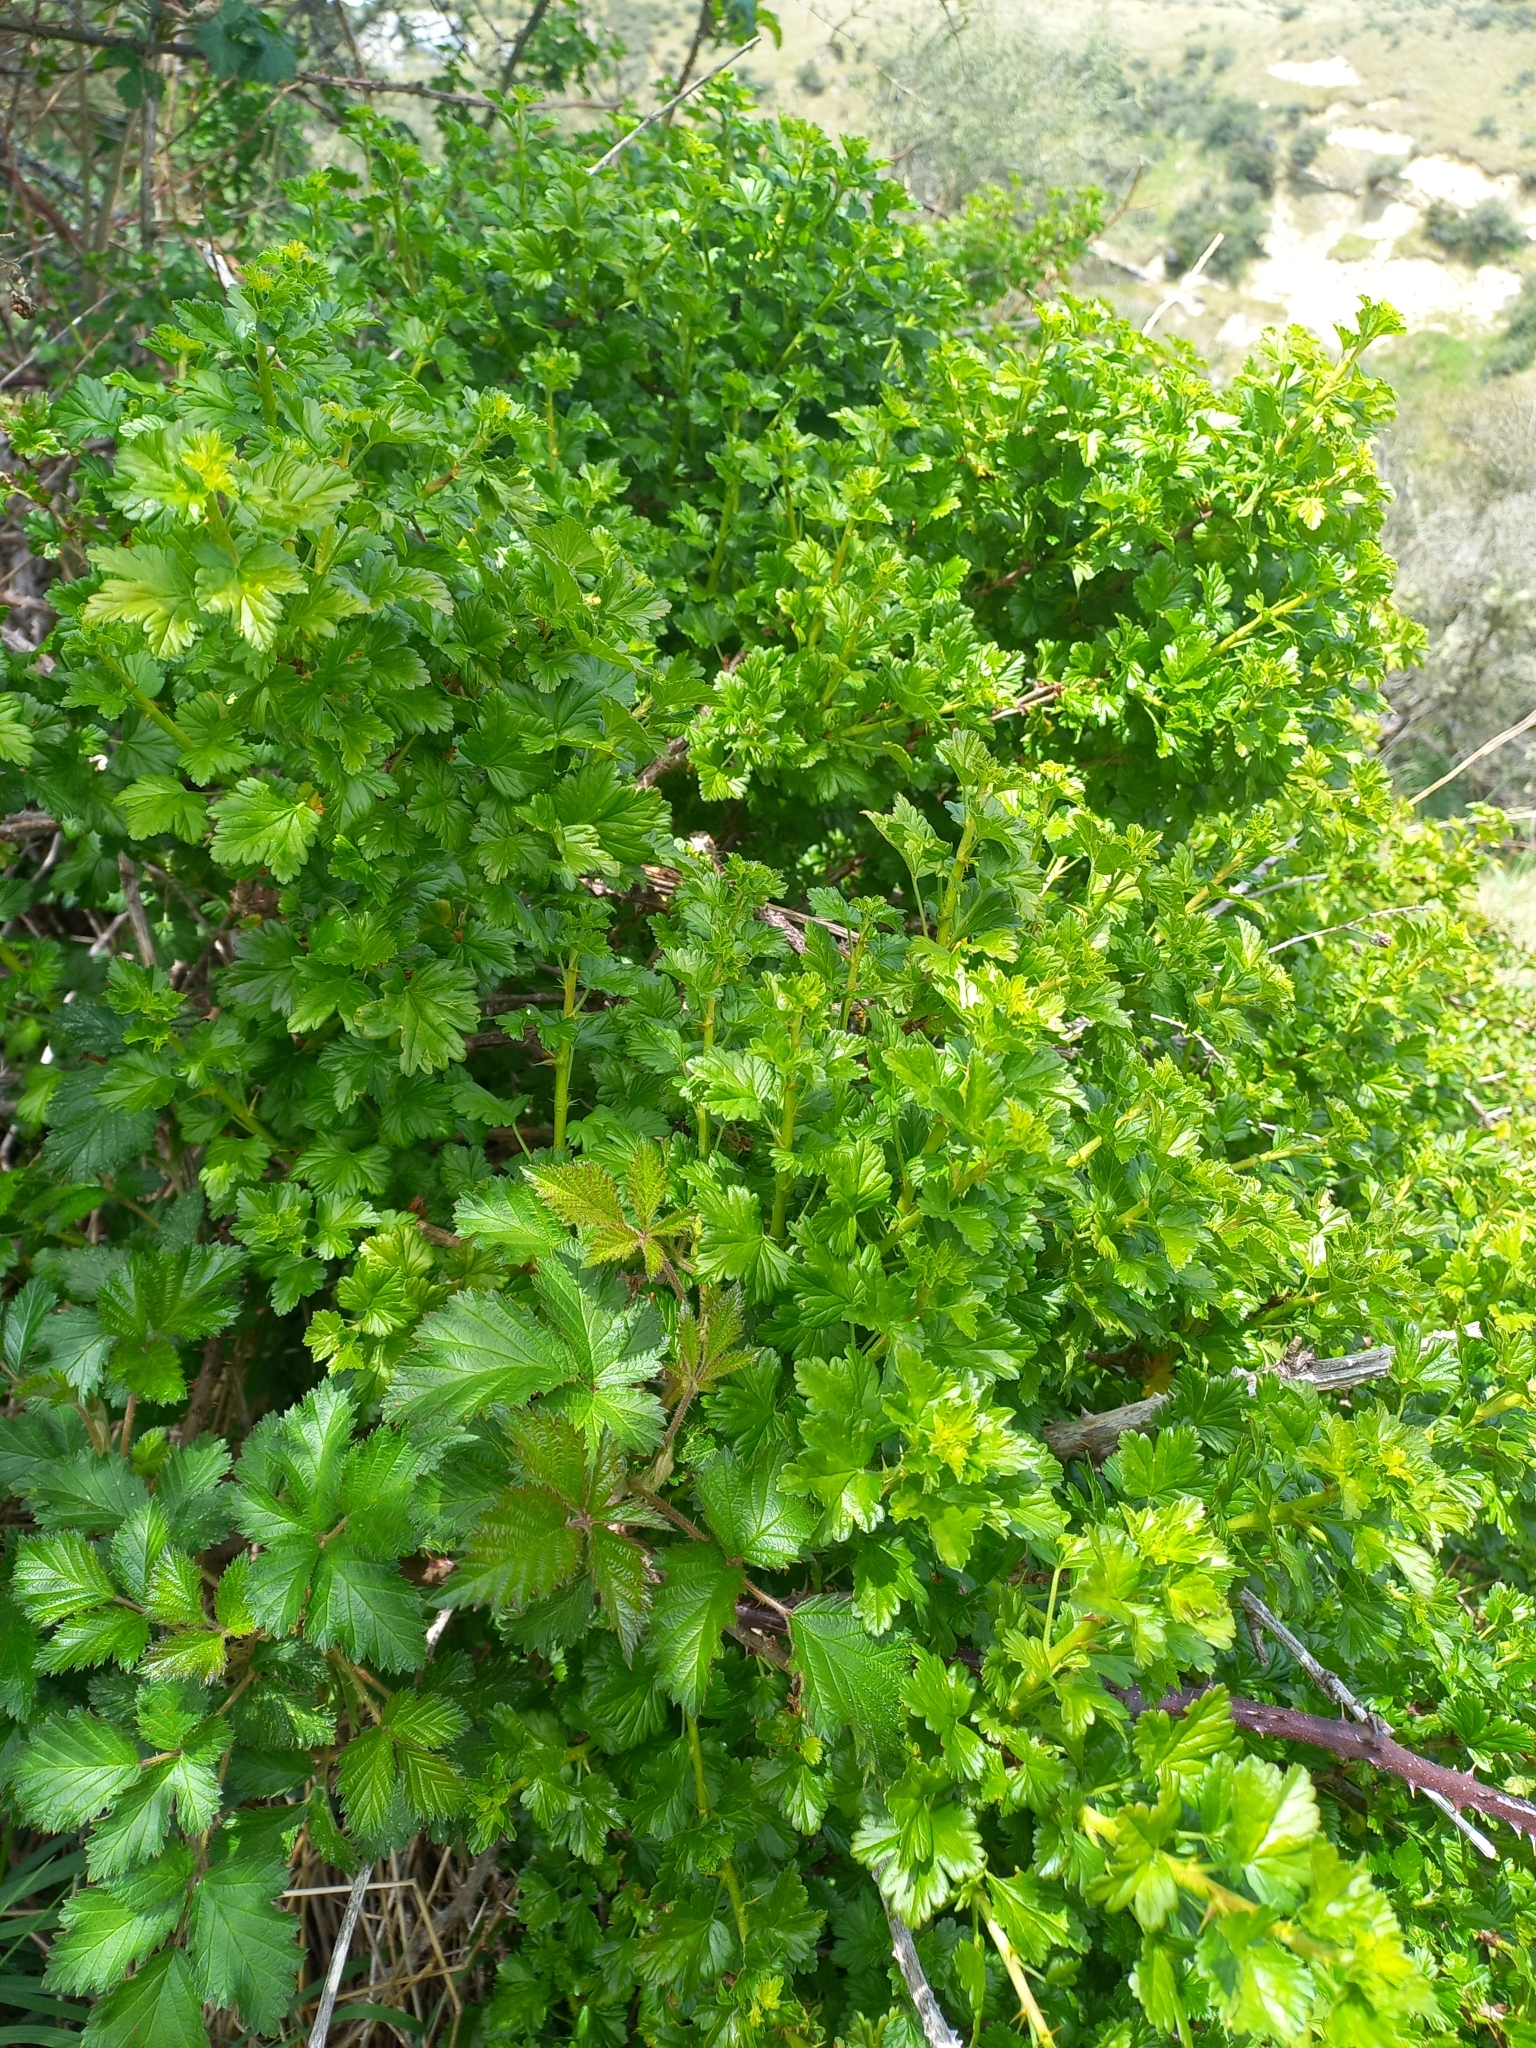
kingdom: Plantae
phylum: Tracheophyta
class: Magnoliopsida
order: Saxifragales
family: Grossulariaceae
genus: Ribes
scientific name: Ribes uva-crispa
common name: Gooseberry
